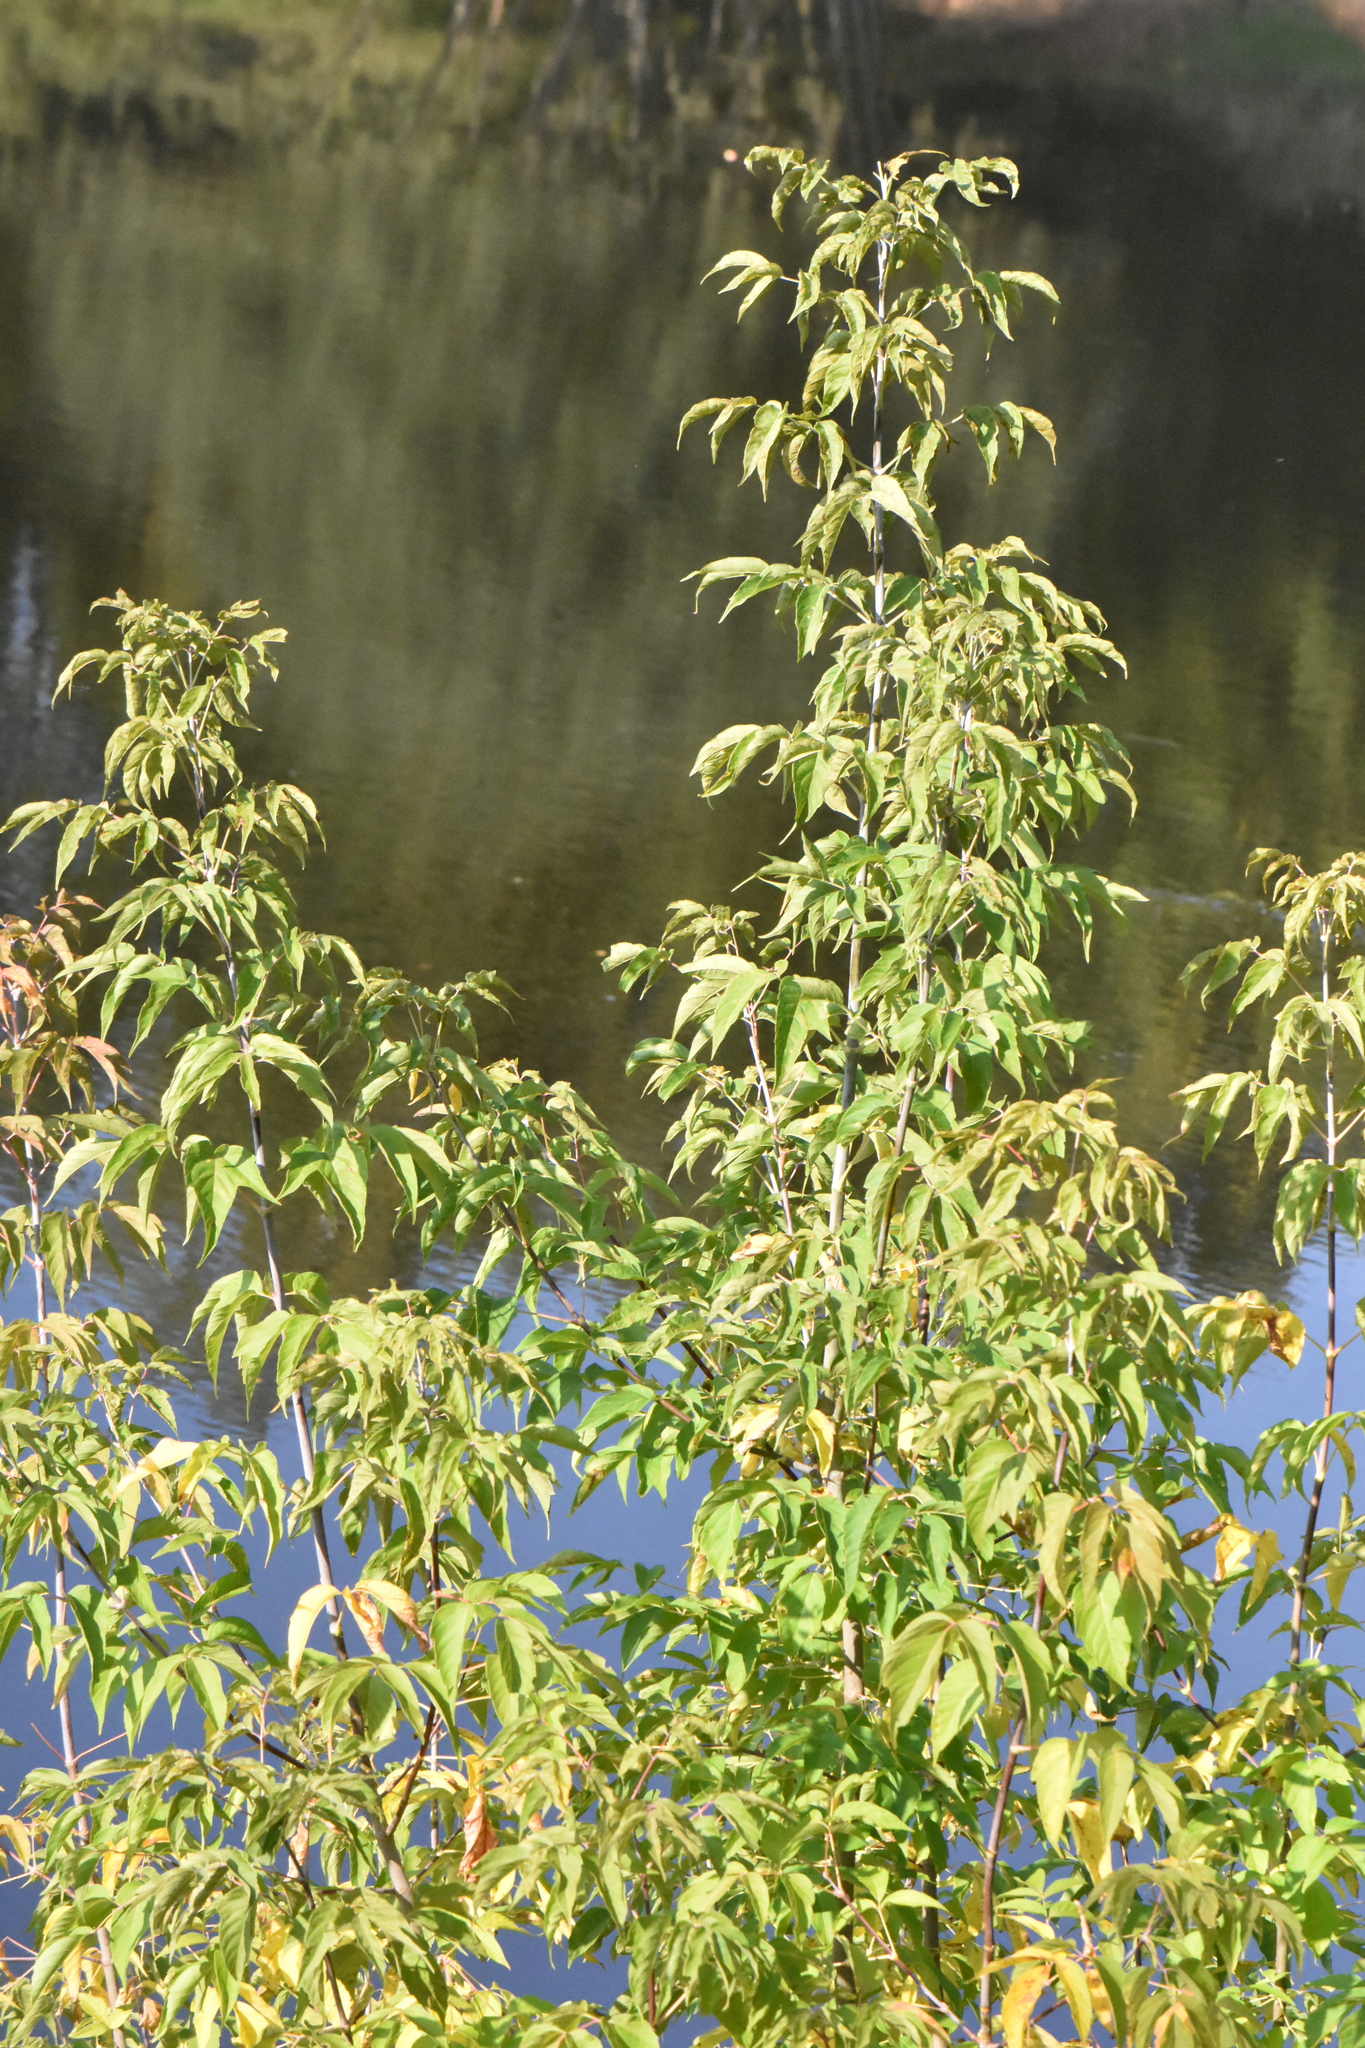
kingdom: Plantae
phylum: Tracheophyta
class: Magnoliopsida
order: Sapindales
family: Sapindaceae
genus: Acer
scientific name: Acer negundo
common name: Ashleaf maple
